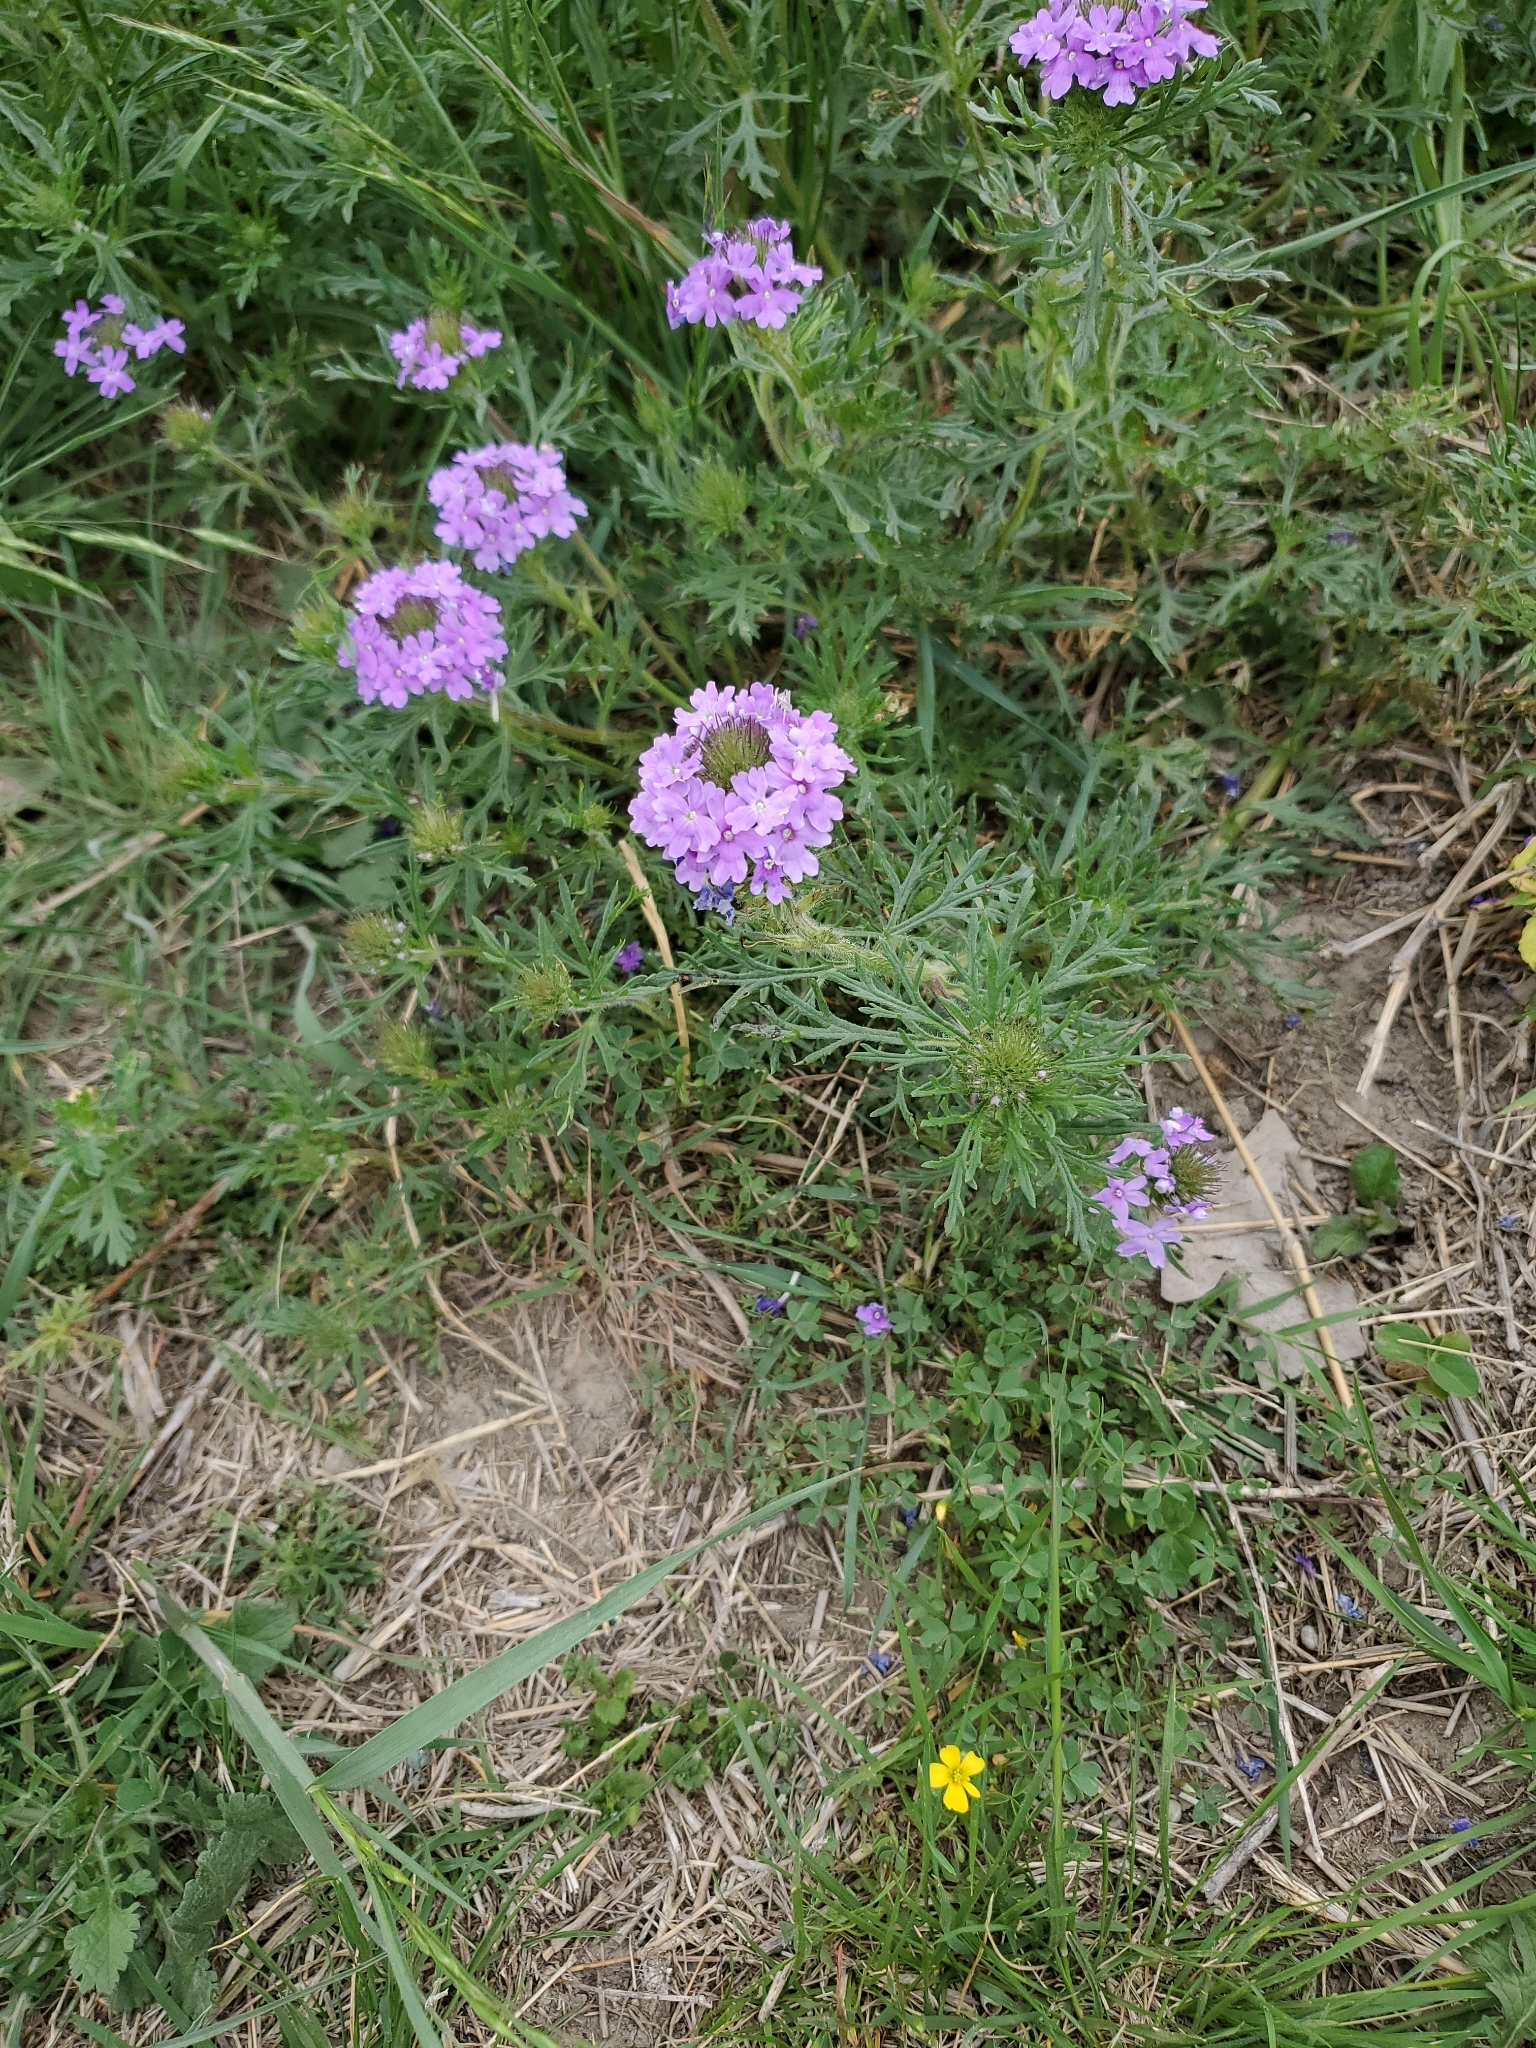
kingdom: Plantae
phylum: Tracheophyta
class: Magnoliopsida
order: Lamiales
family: Verbenaceae
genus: Verbena
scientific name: Verbena bipinnatifida
